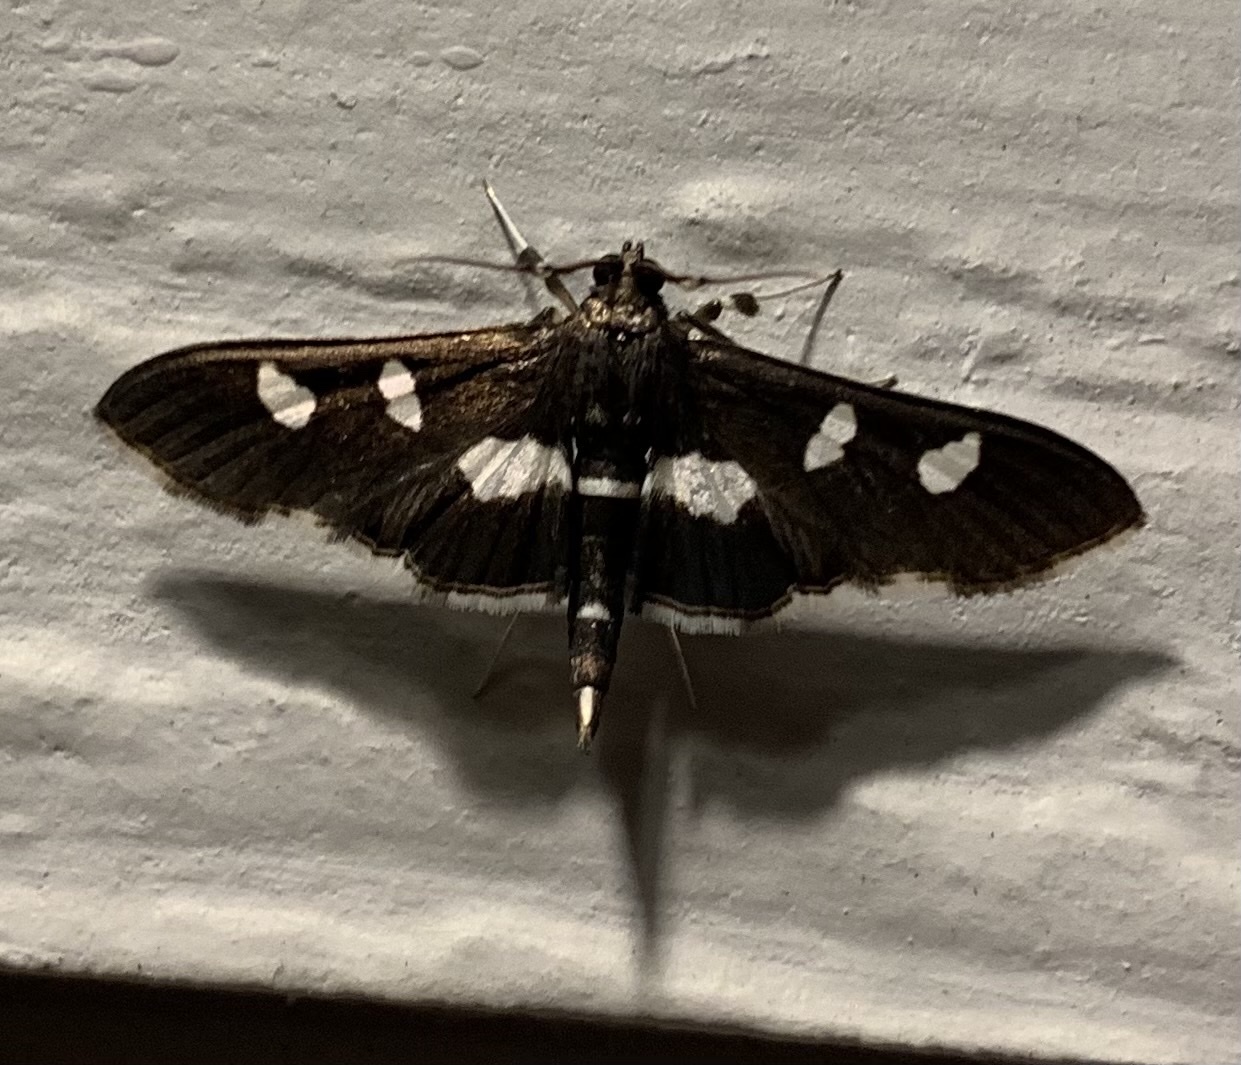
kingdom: Animalia
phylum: Arthropoda
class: Insecta
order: Lepidoptera
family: Crambidae
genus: Desmia
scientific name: Desmia
